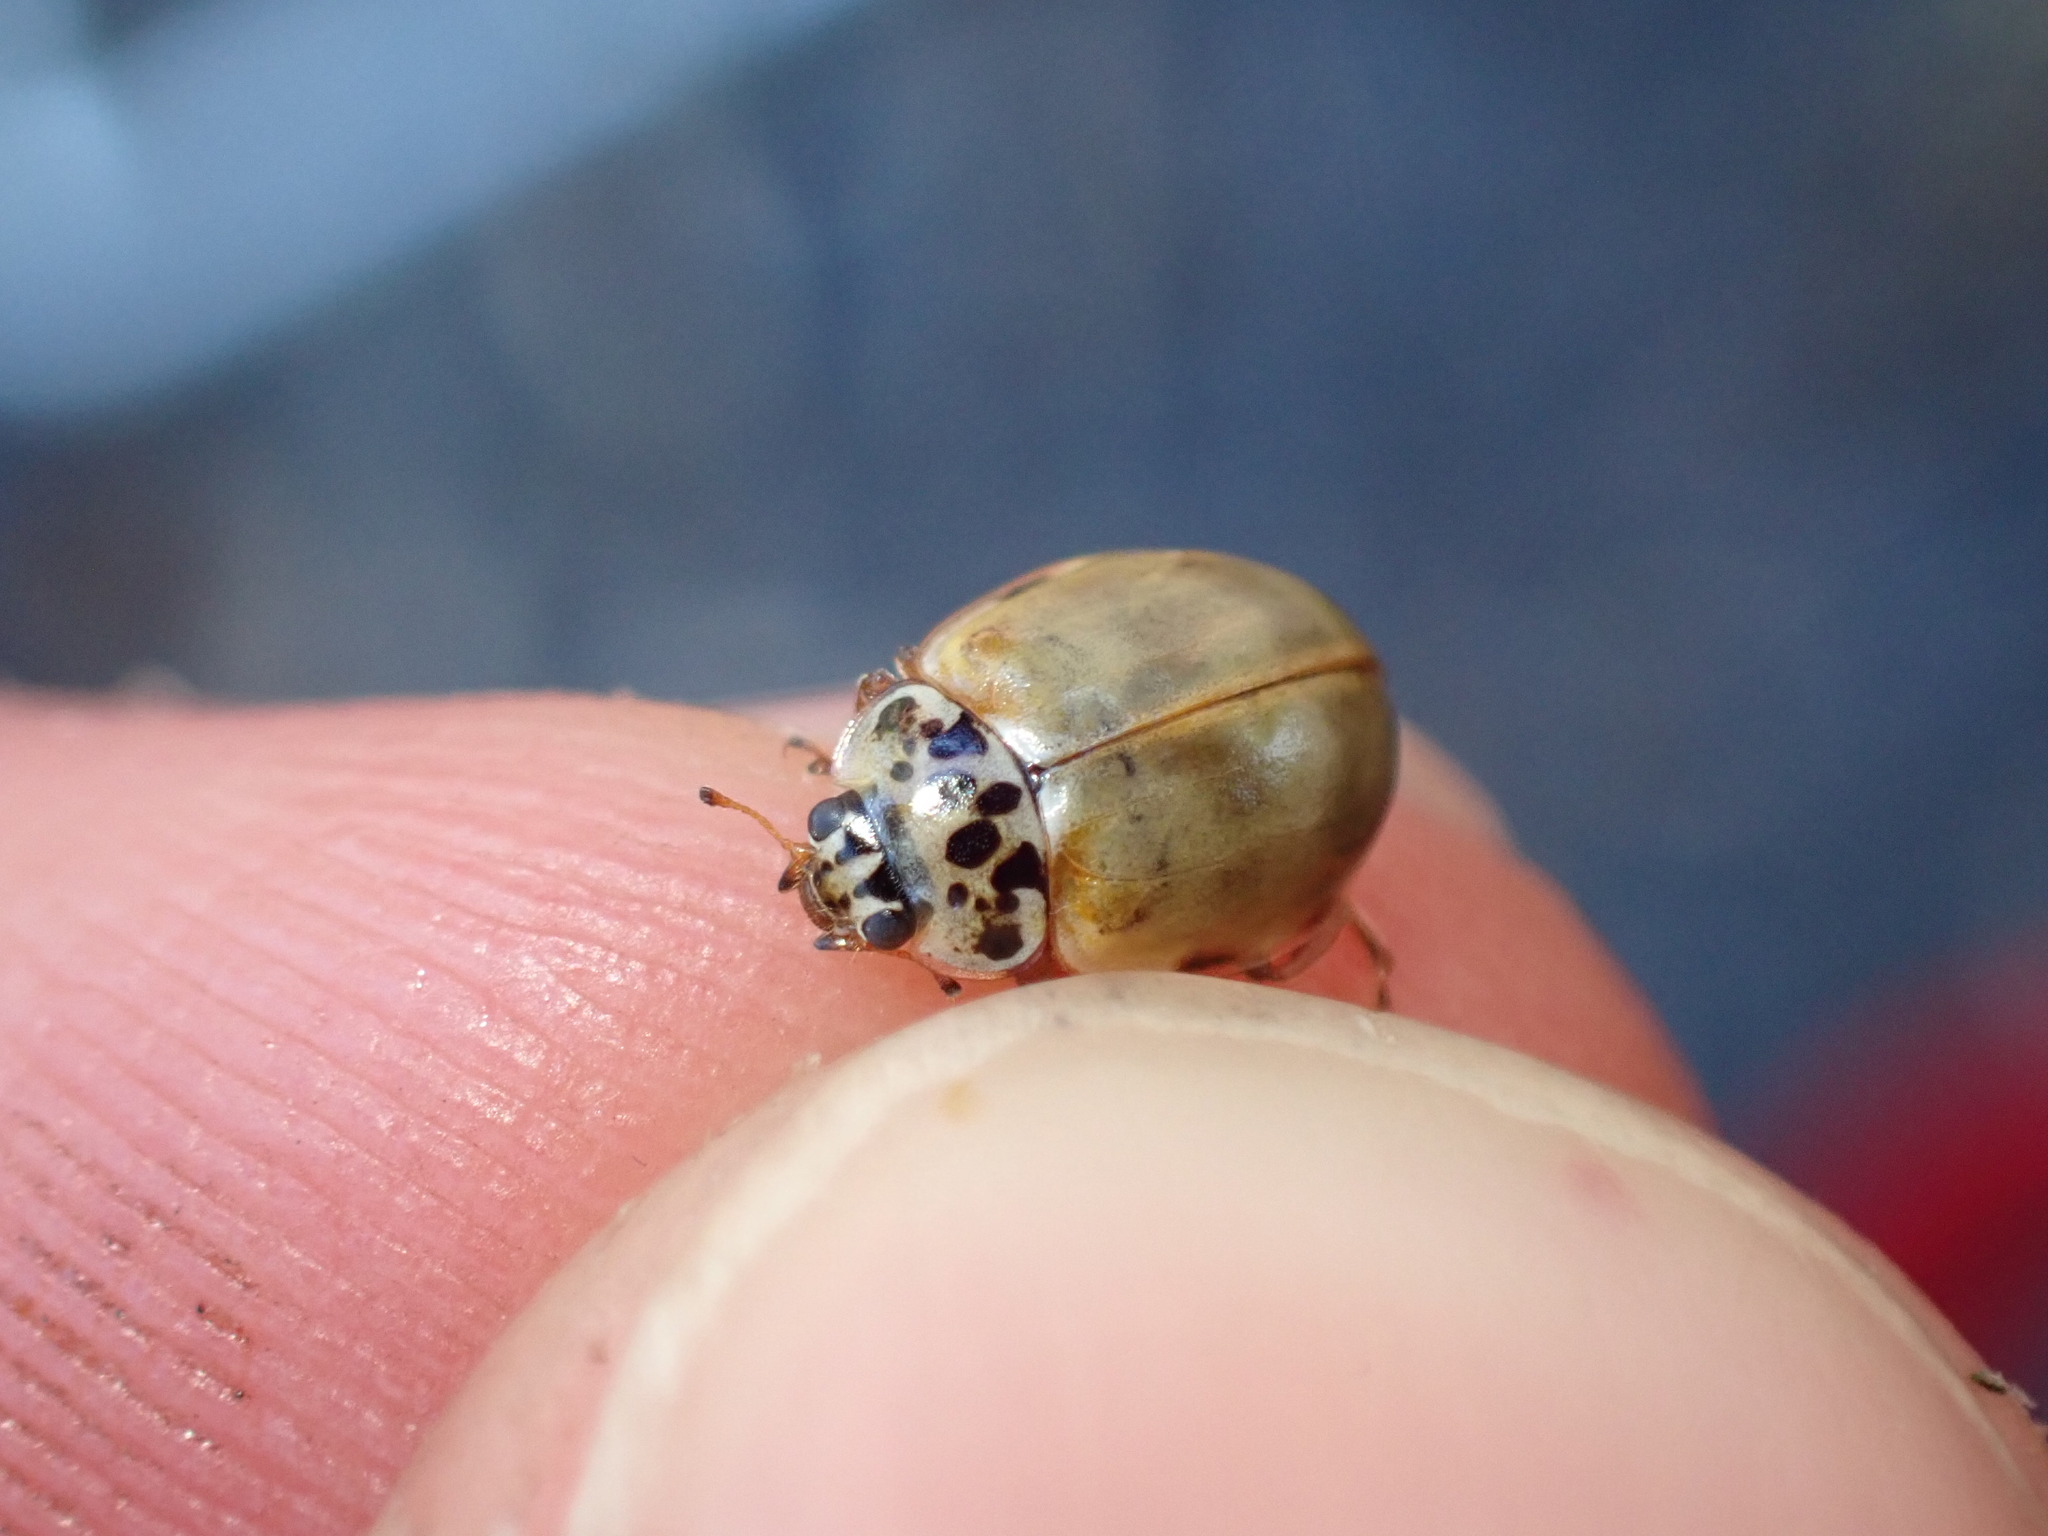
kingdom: Animalia
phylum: Arthropoda
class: Insecta
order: Coleoptera
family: Coccinellidae
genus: Harmonia
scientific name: Harmonia quadripunctata
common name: Cream-streaked ladybird
